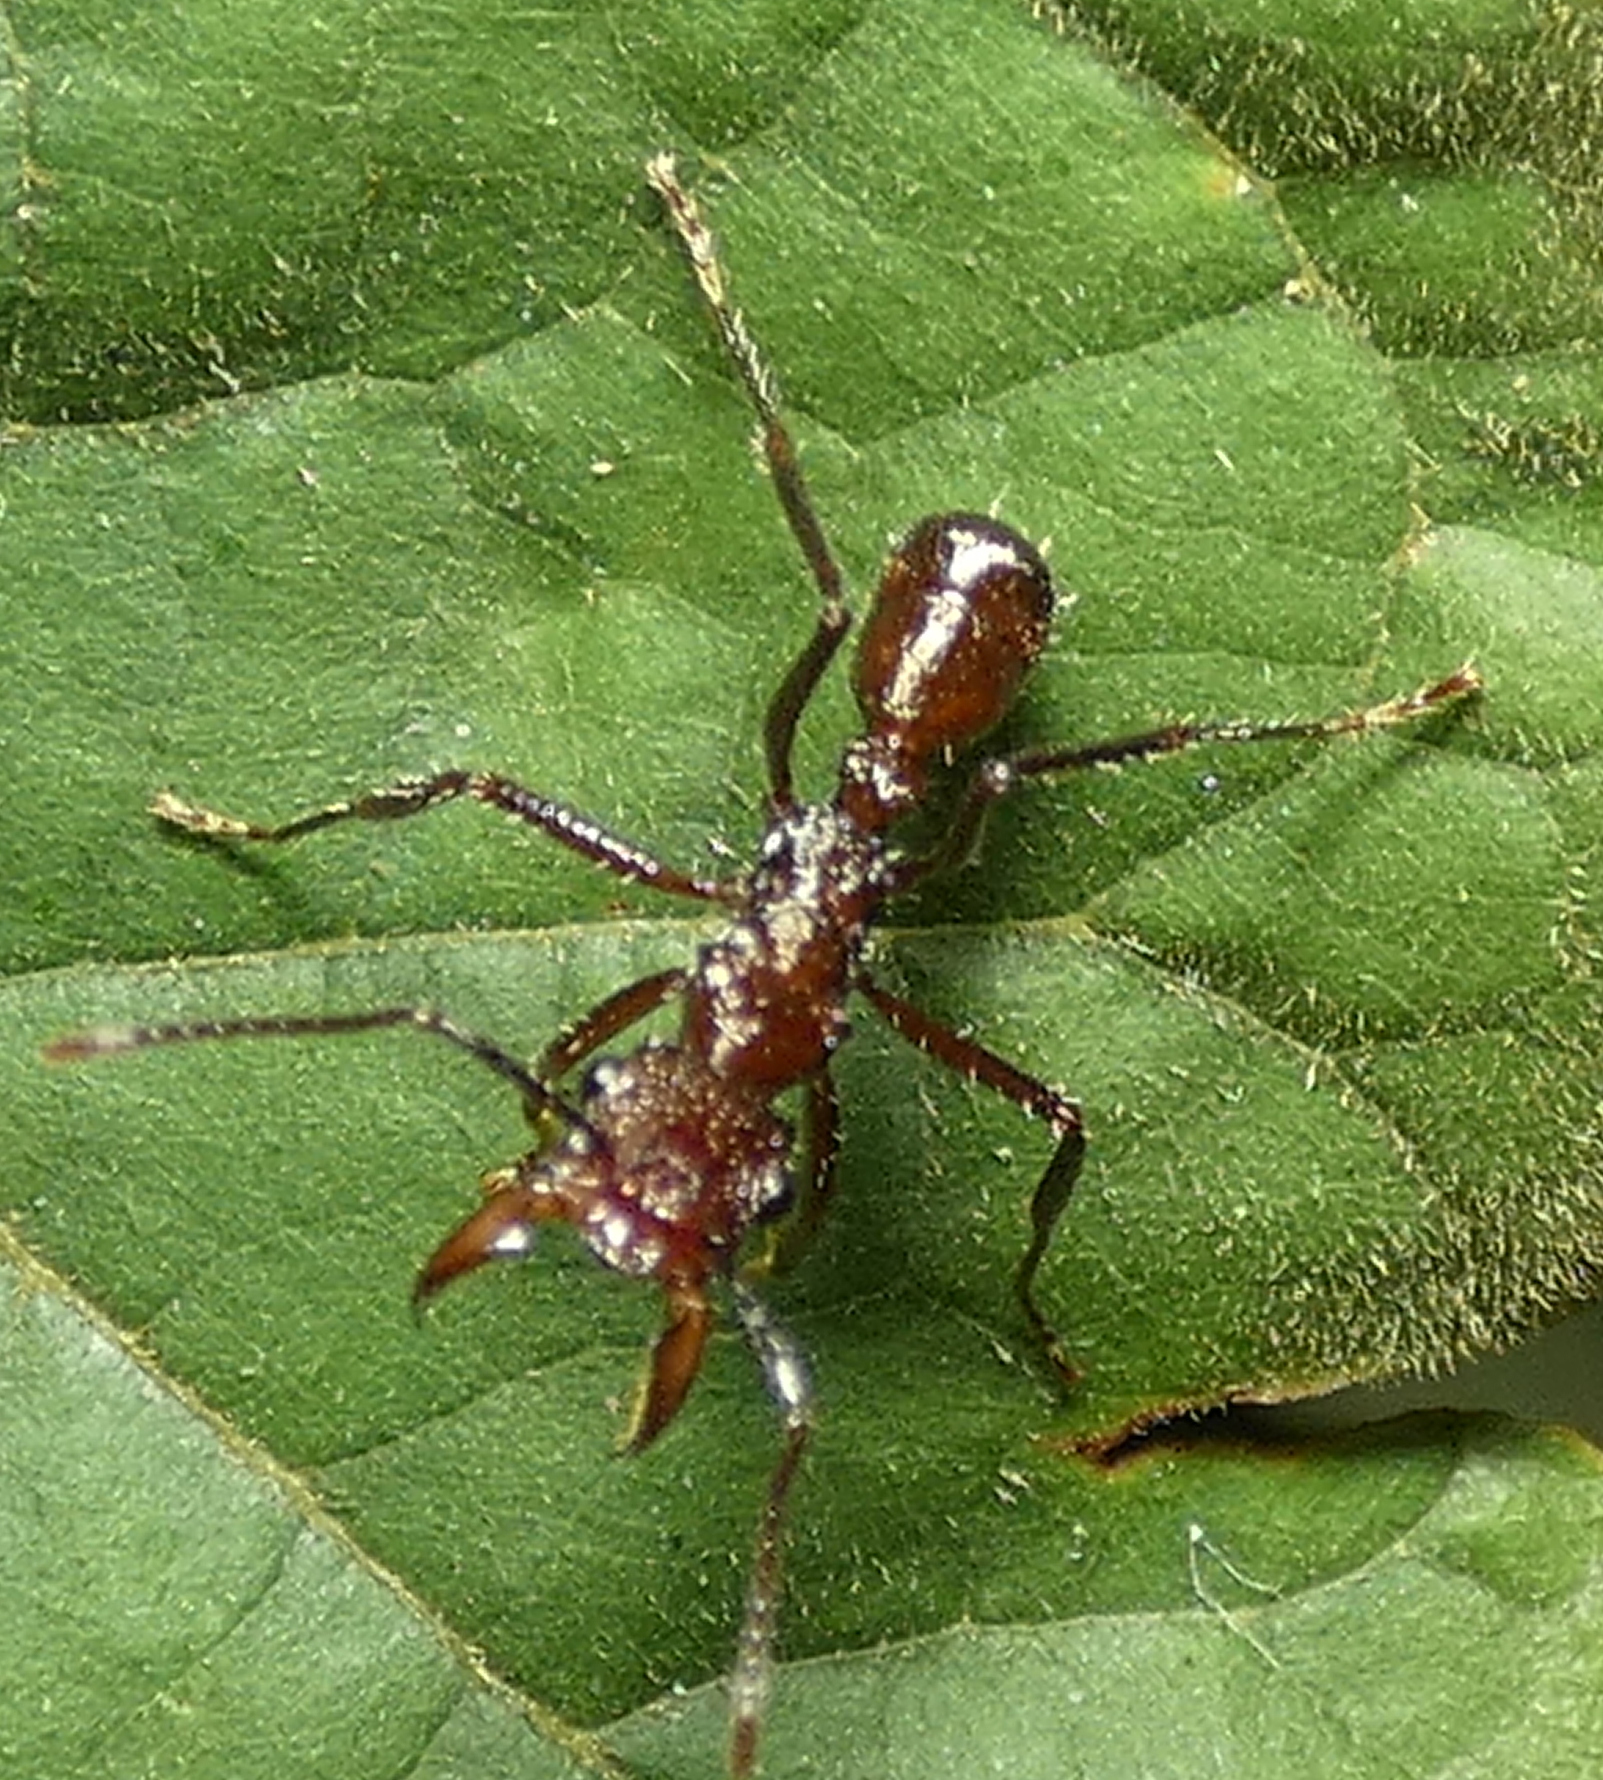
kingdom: Animalia
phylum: Arthropoda
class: Insecta
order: Hymenoptera
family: Formicidae
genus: Ectatomma
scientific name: Ectatomma tuberculatum
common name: Ant
